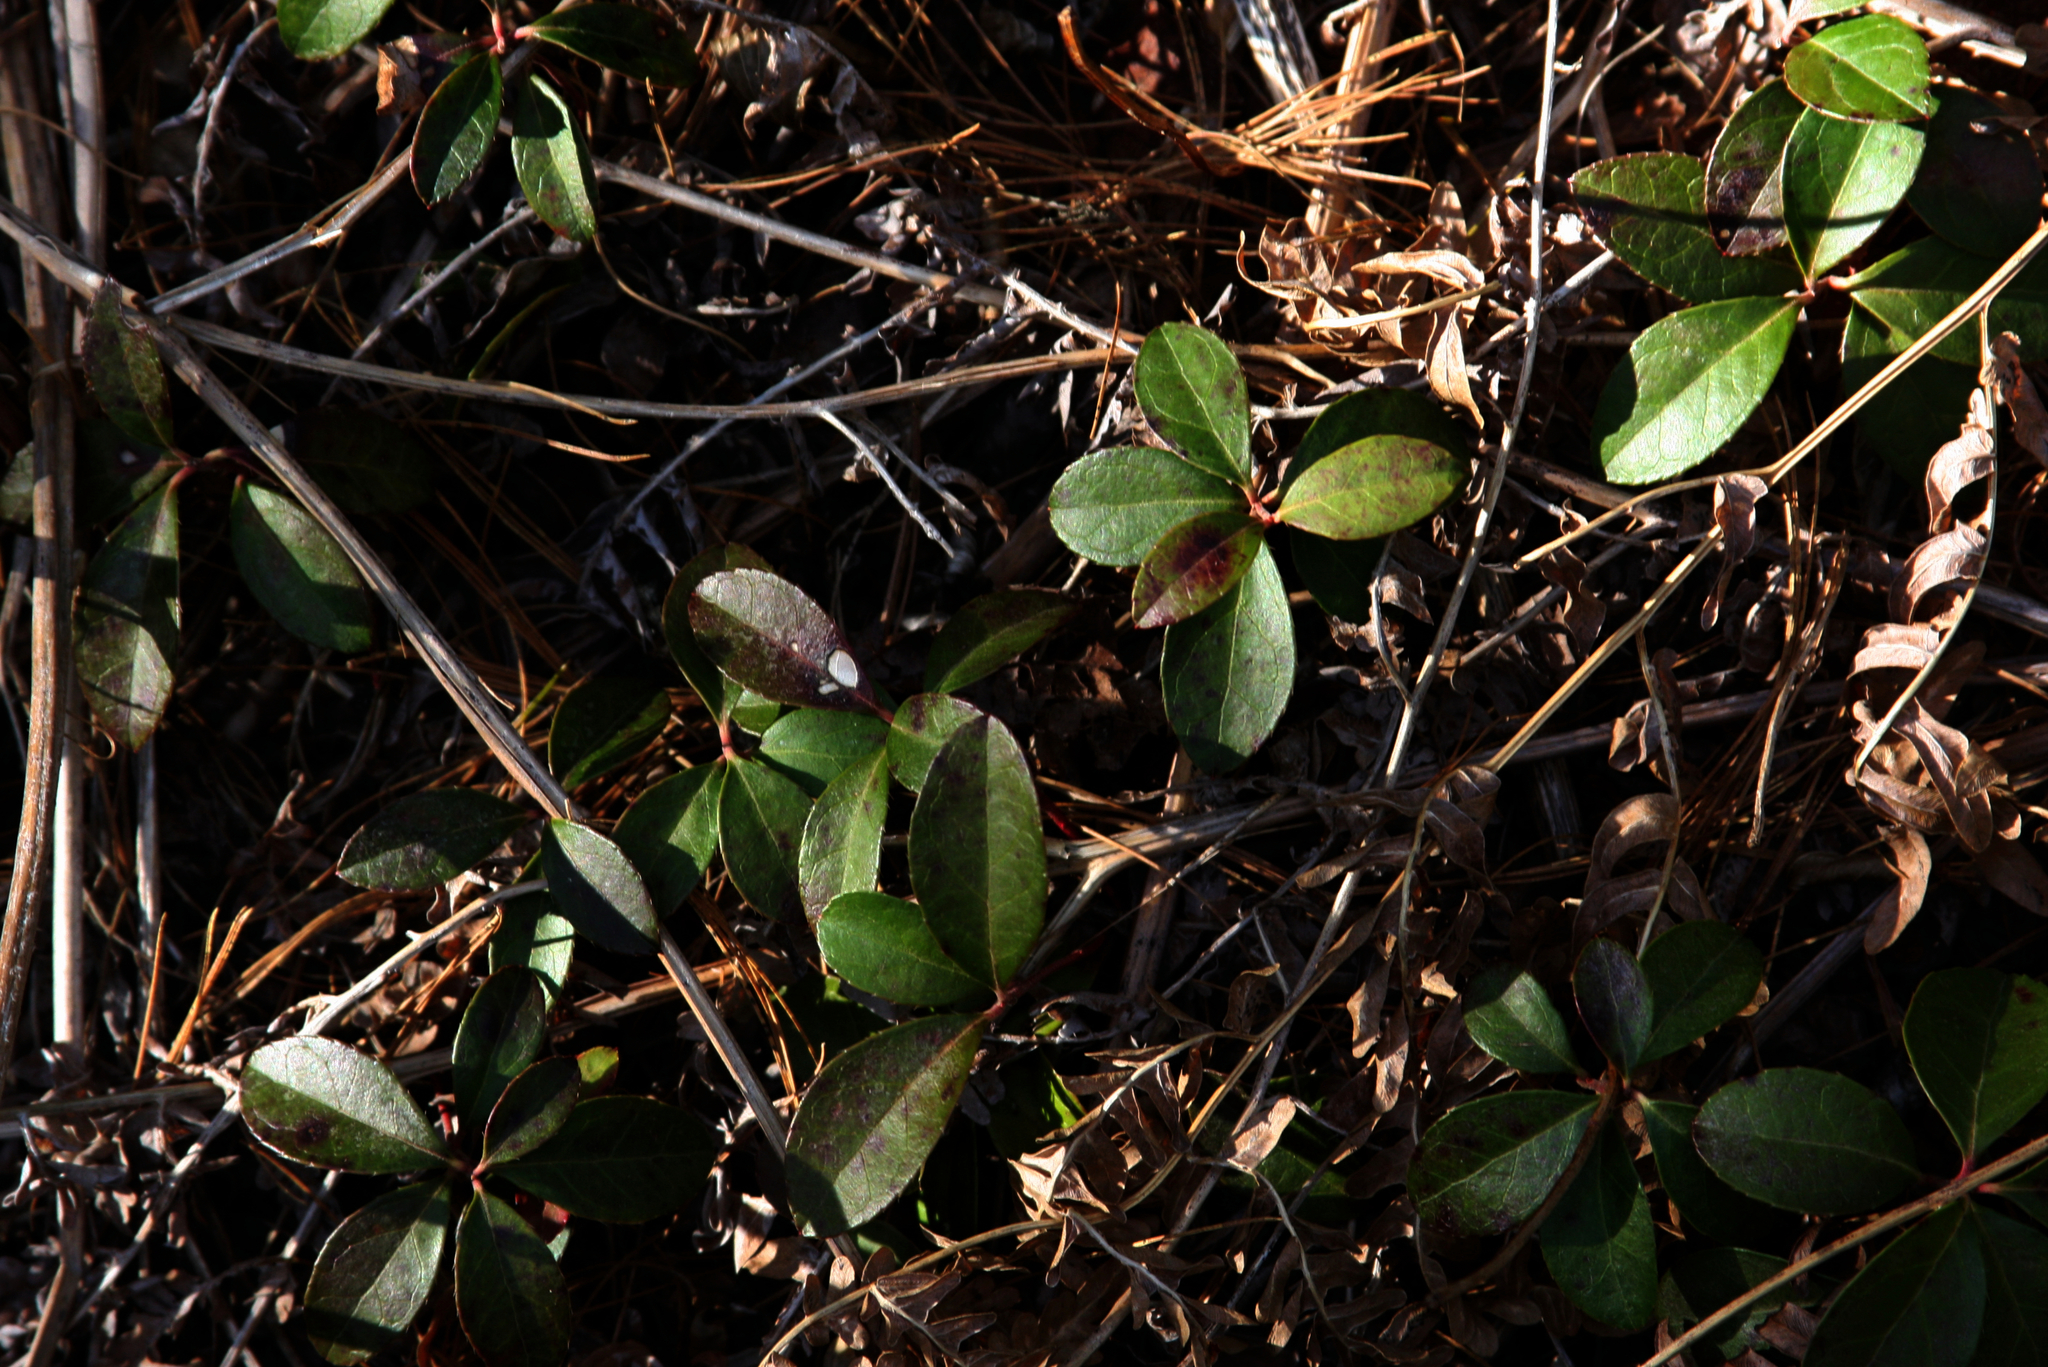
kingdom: Plantae
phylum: Tracheophyta
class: Magnoliopsida
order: Ericales
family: Ericaceae
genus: Gaultheria
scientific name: Gaultheria procumbens
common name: Checkerberry
